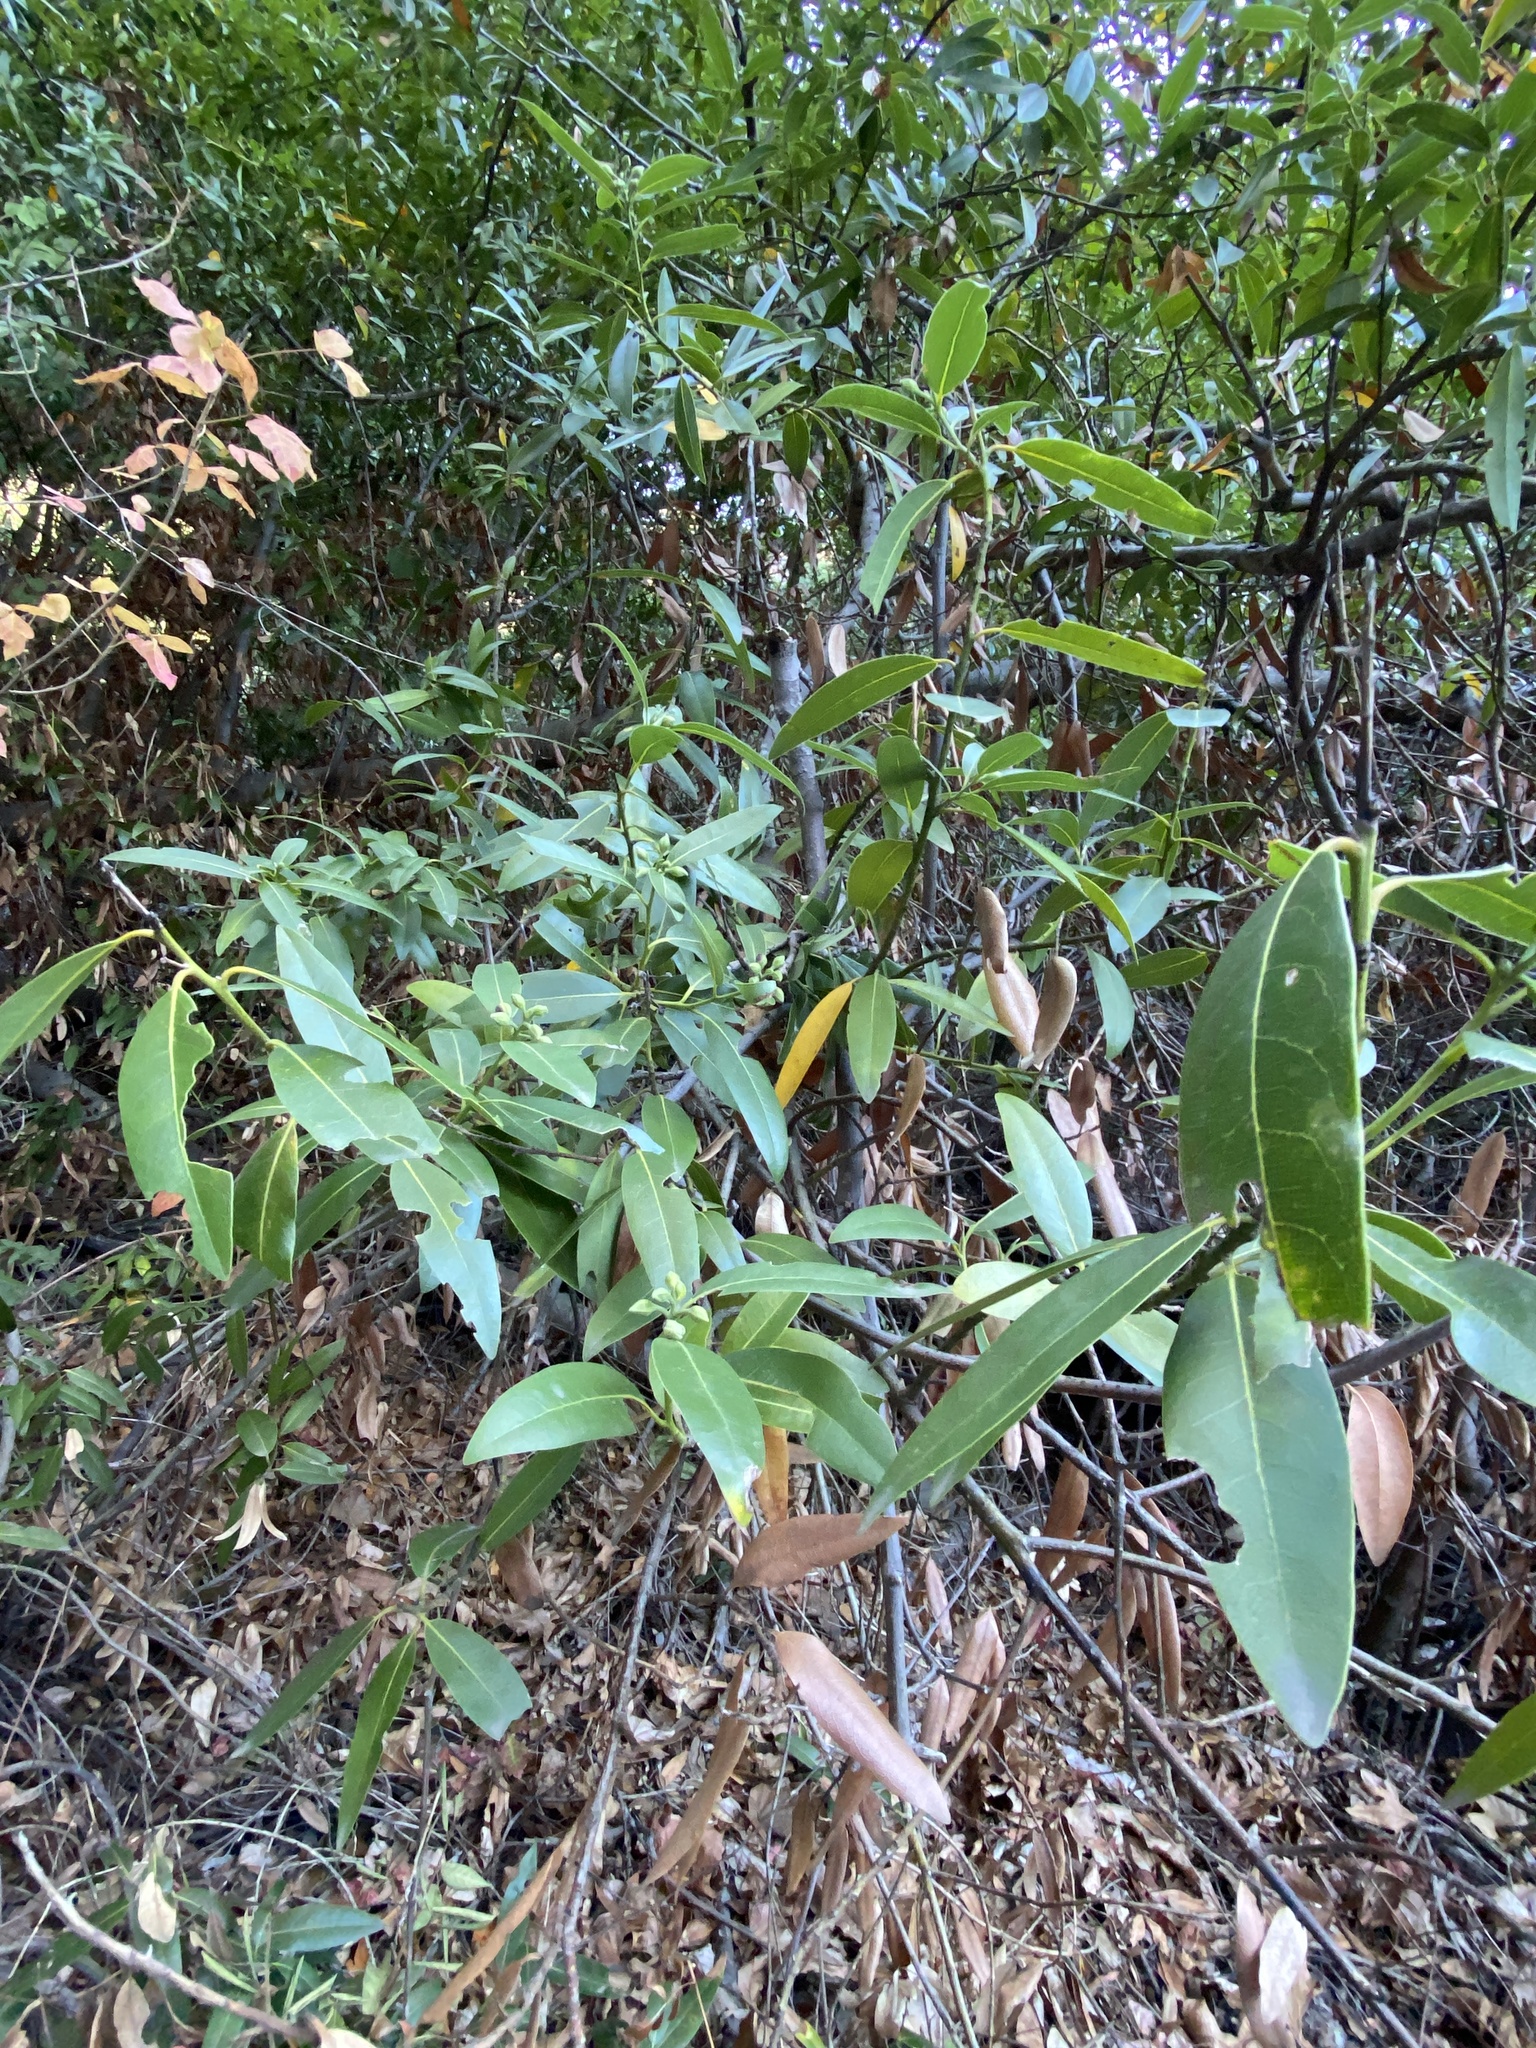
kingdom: Plantae
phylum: Tracheophyta
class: Magnoliopsida
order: Laurales
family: Lauraceae
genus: Umbellularia
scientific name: Umbellularia californica
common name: California bay
